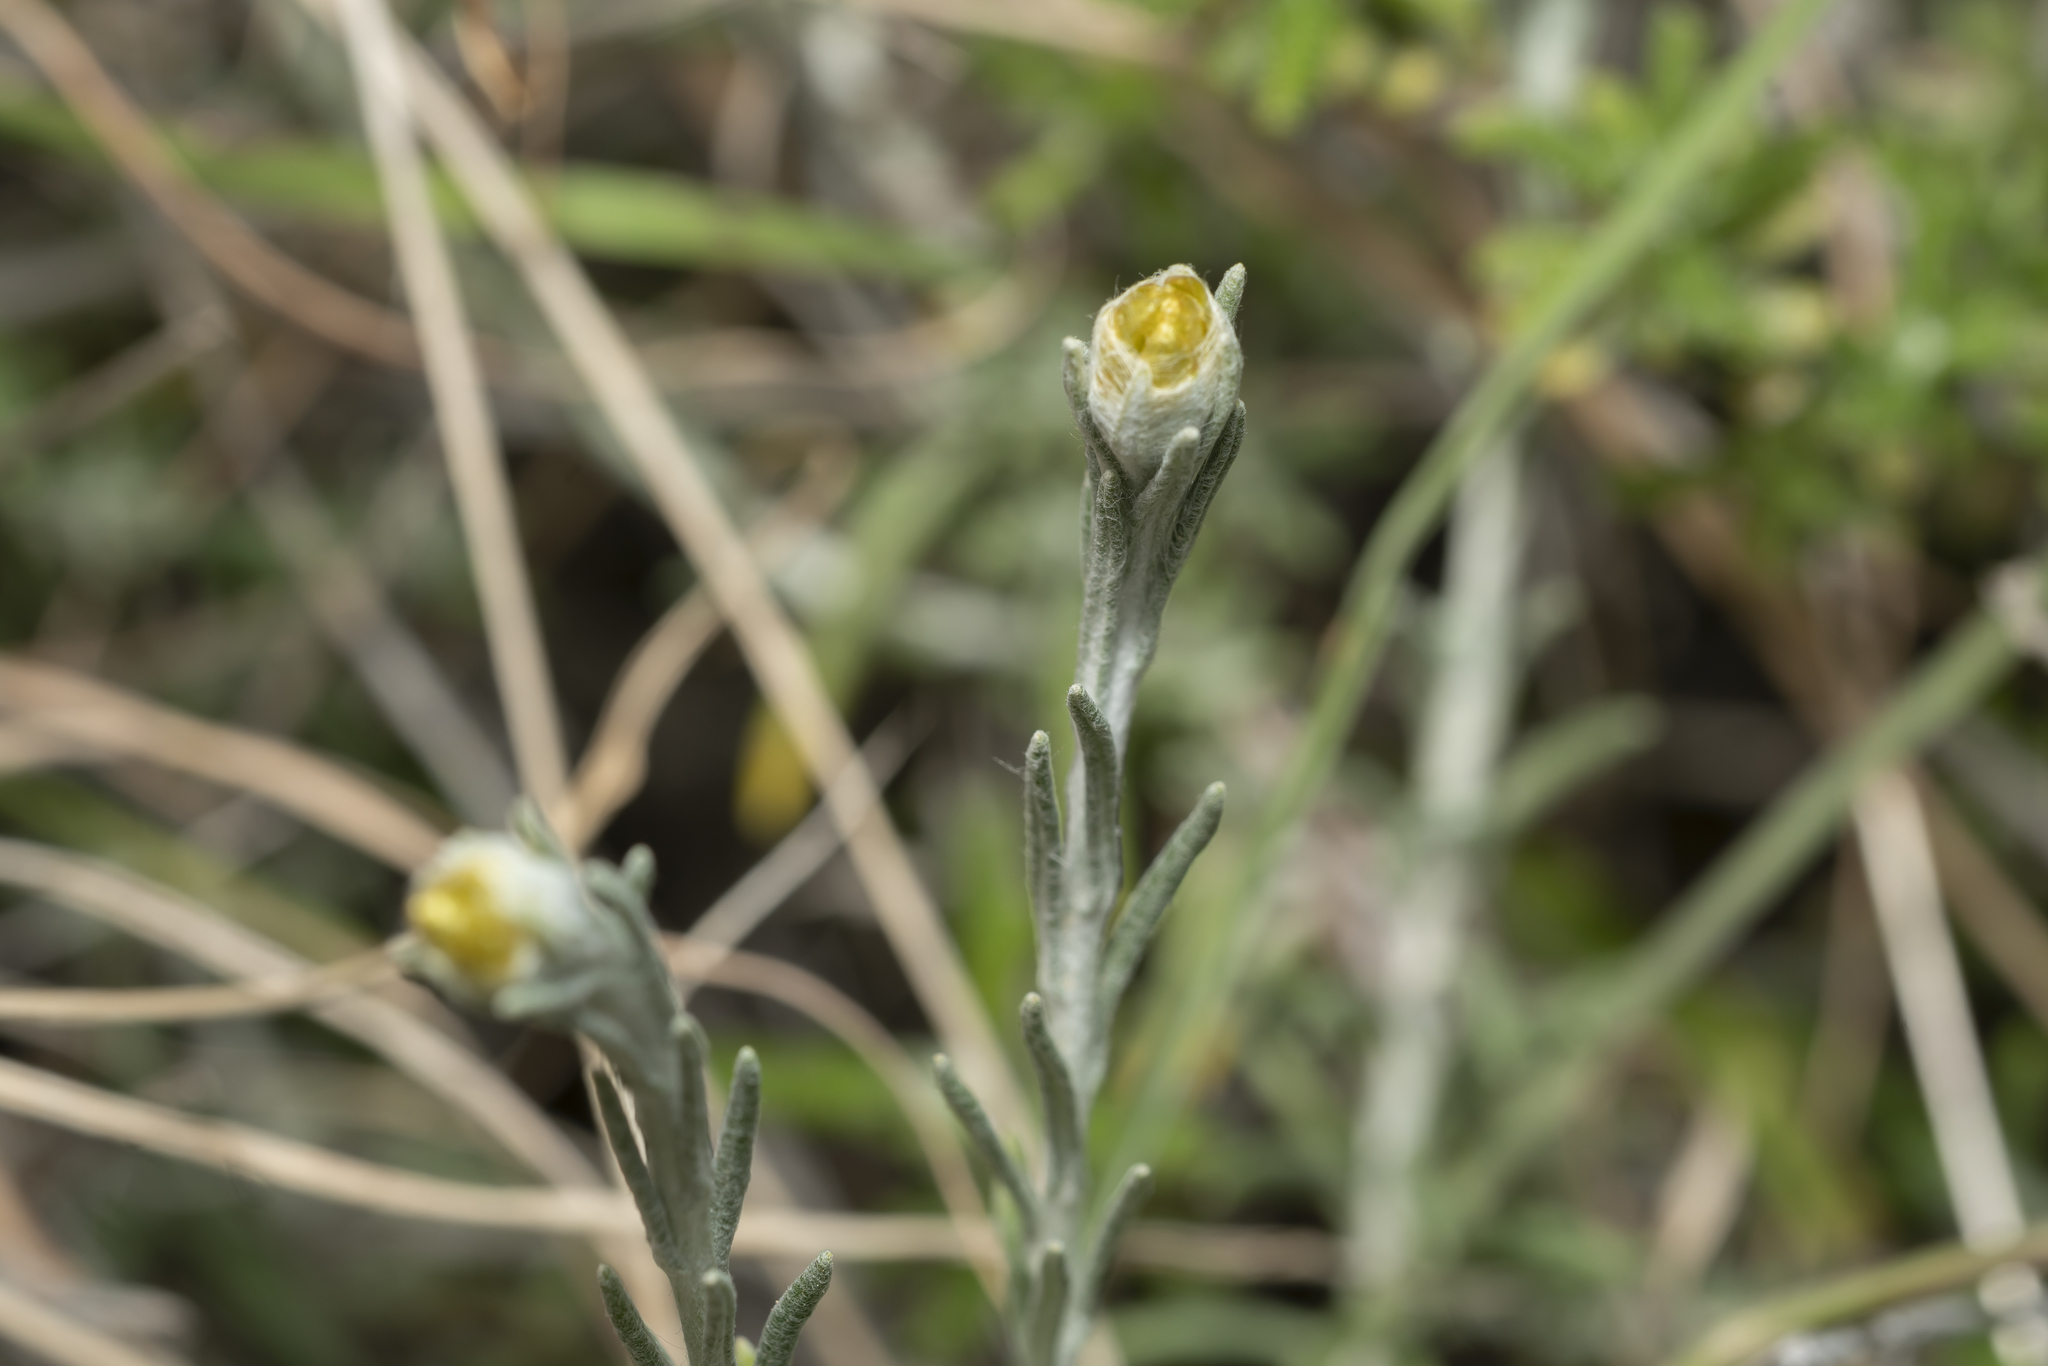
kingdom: Plantae
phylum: Tracheophyta
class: Magnoliopsida
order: Asterales
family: Asteraceae
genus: Helichrysum
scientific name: Helichrysum stoechas
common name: Goldilocks
